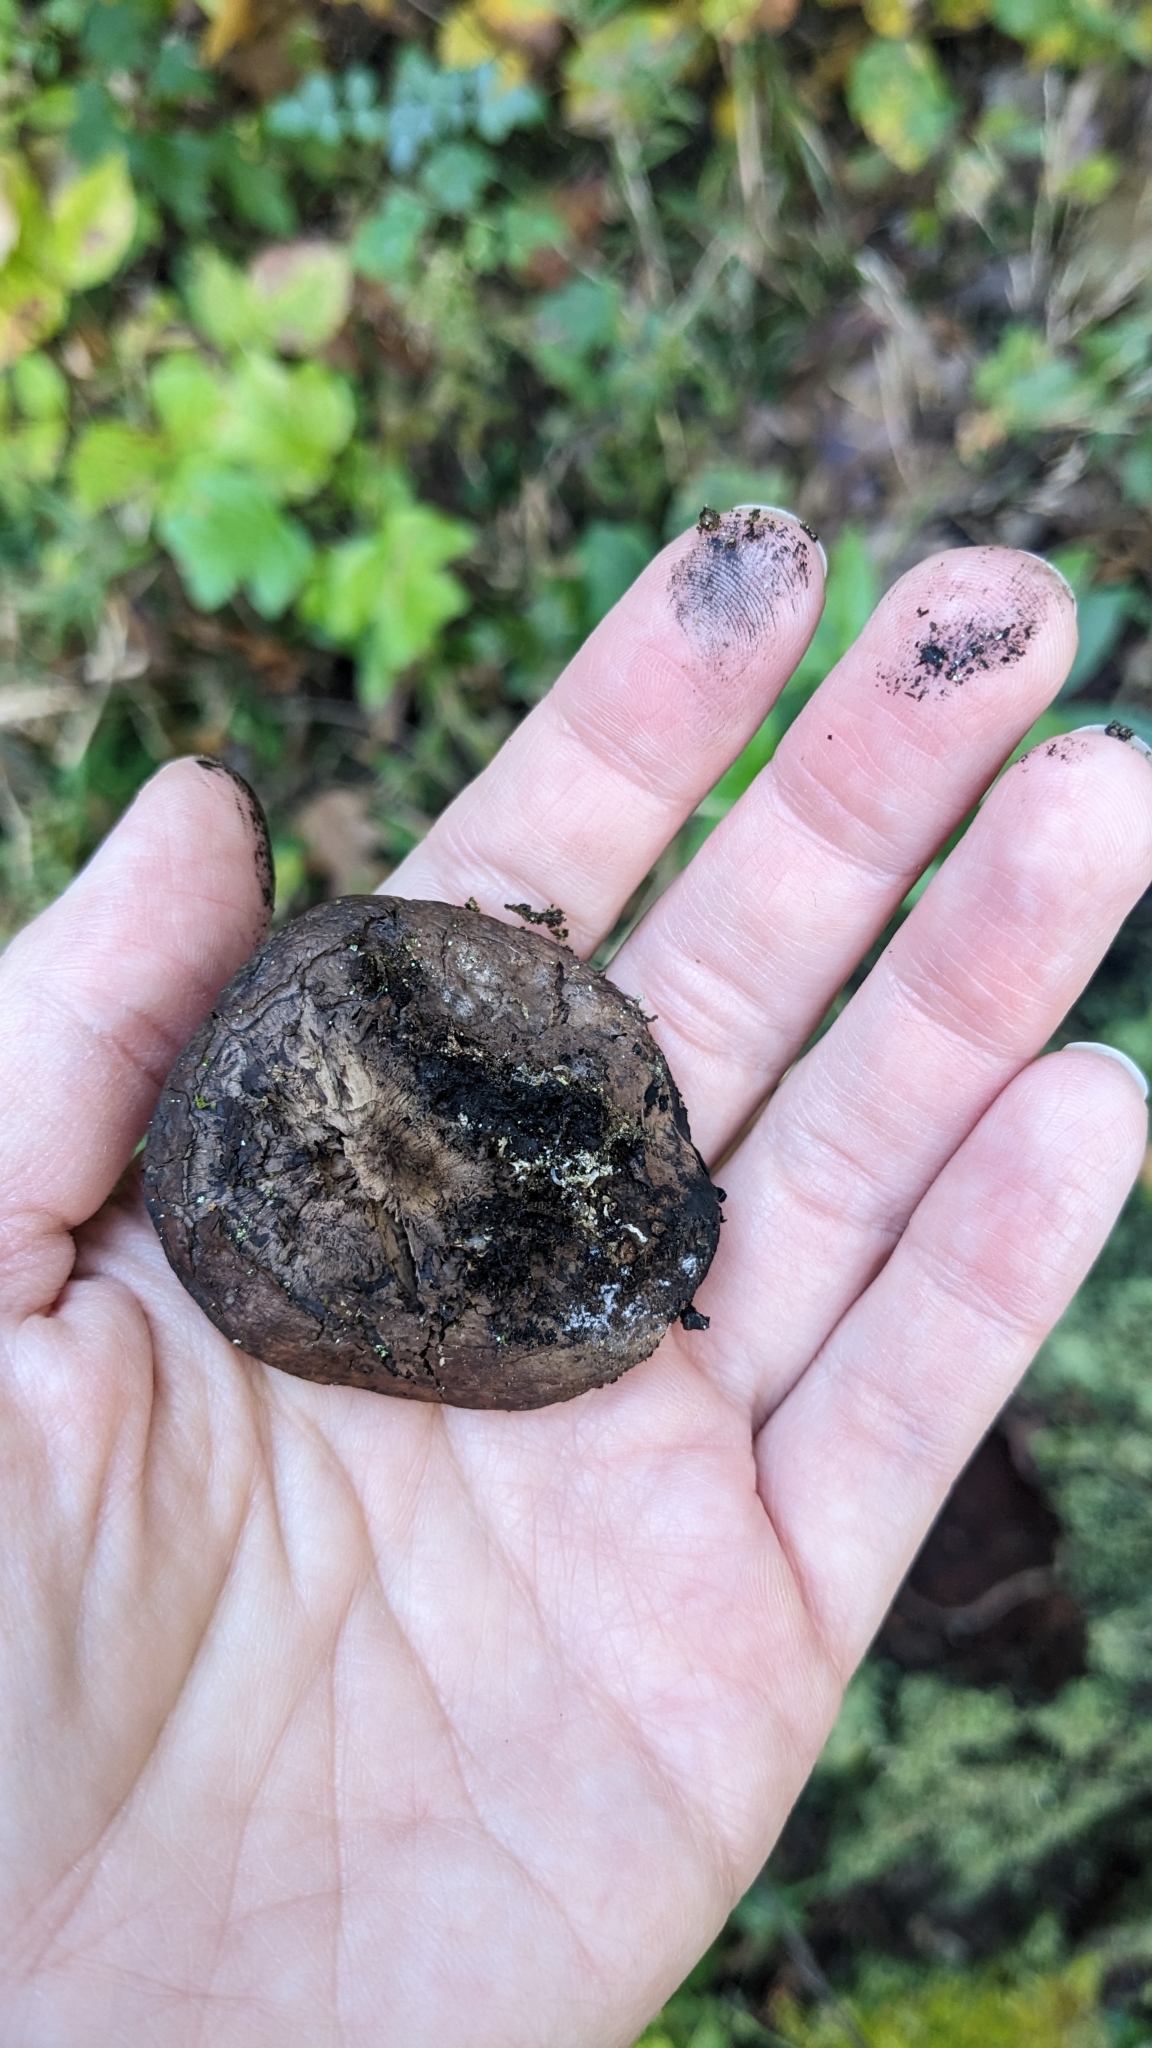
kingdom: Fungi
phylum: Ascomycota
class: Sordariomycetes
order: Boliniales
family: Boliniaceae
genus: Camarops
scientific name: Camarops petersii
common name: Dog's nose fungus
